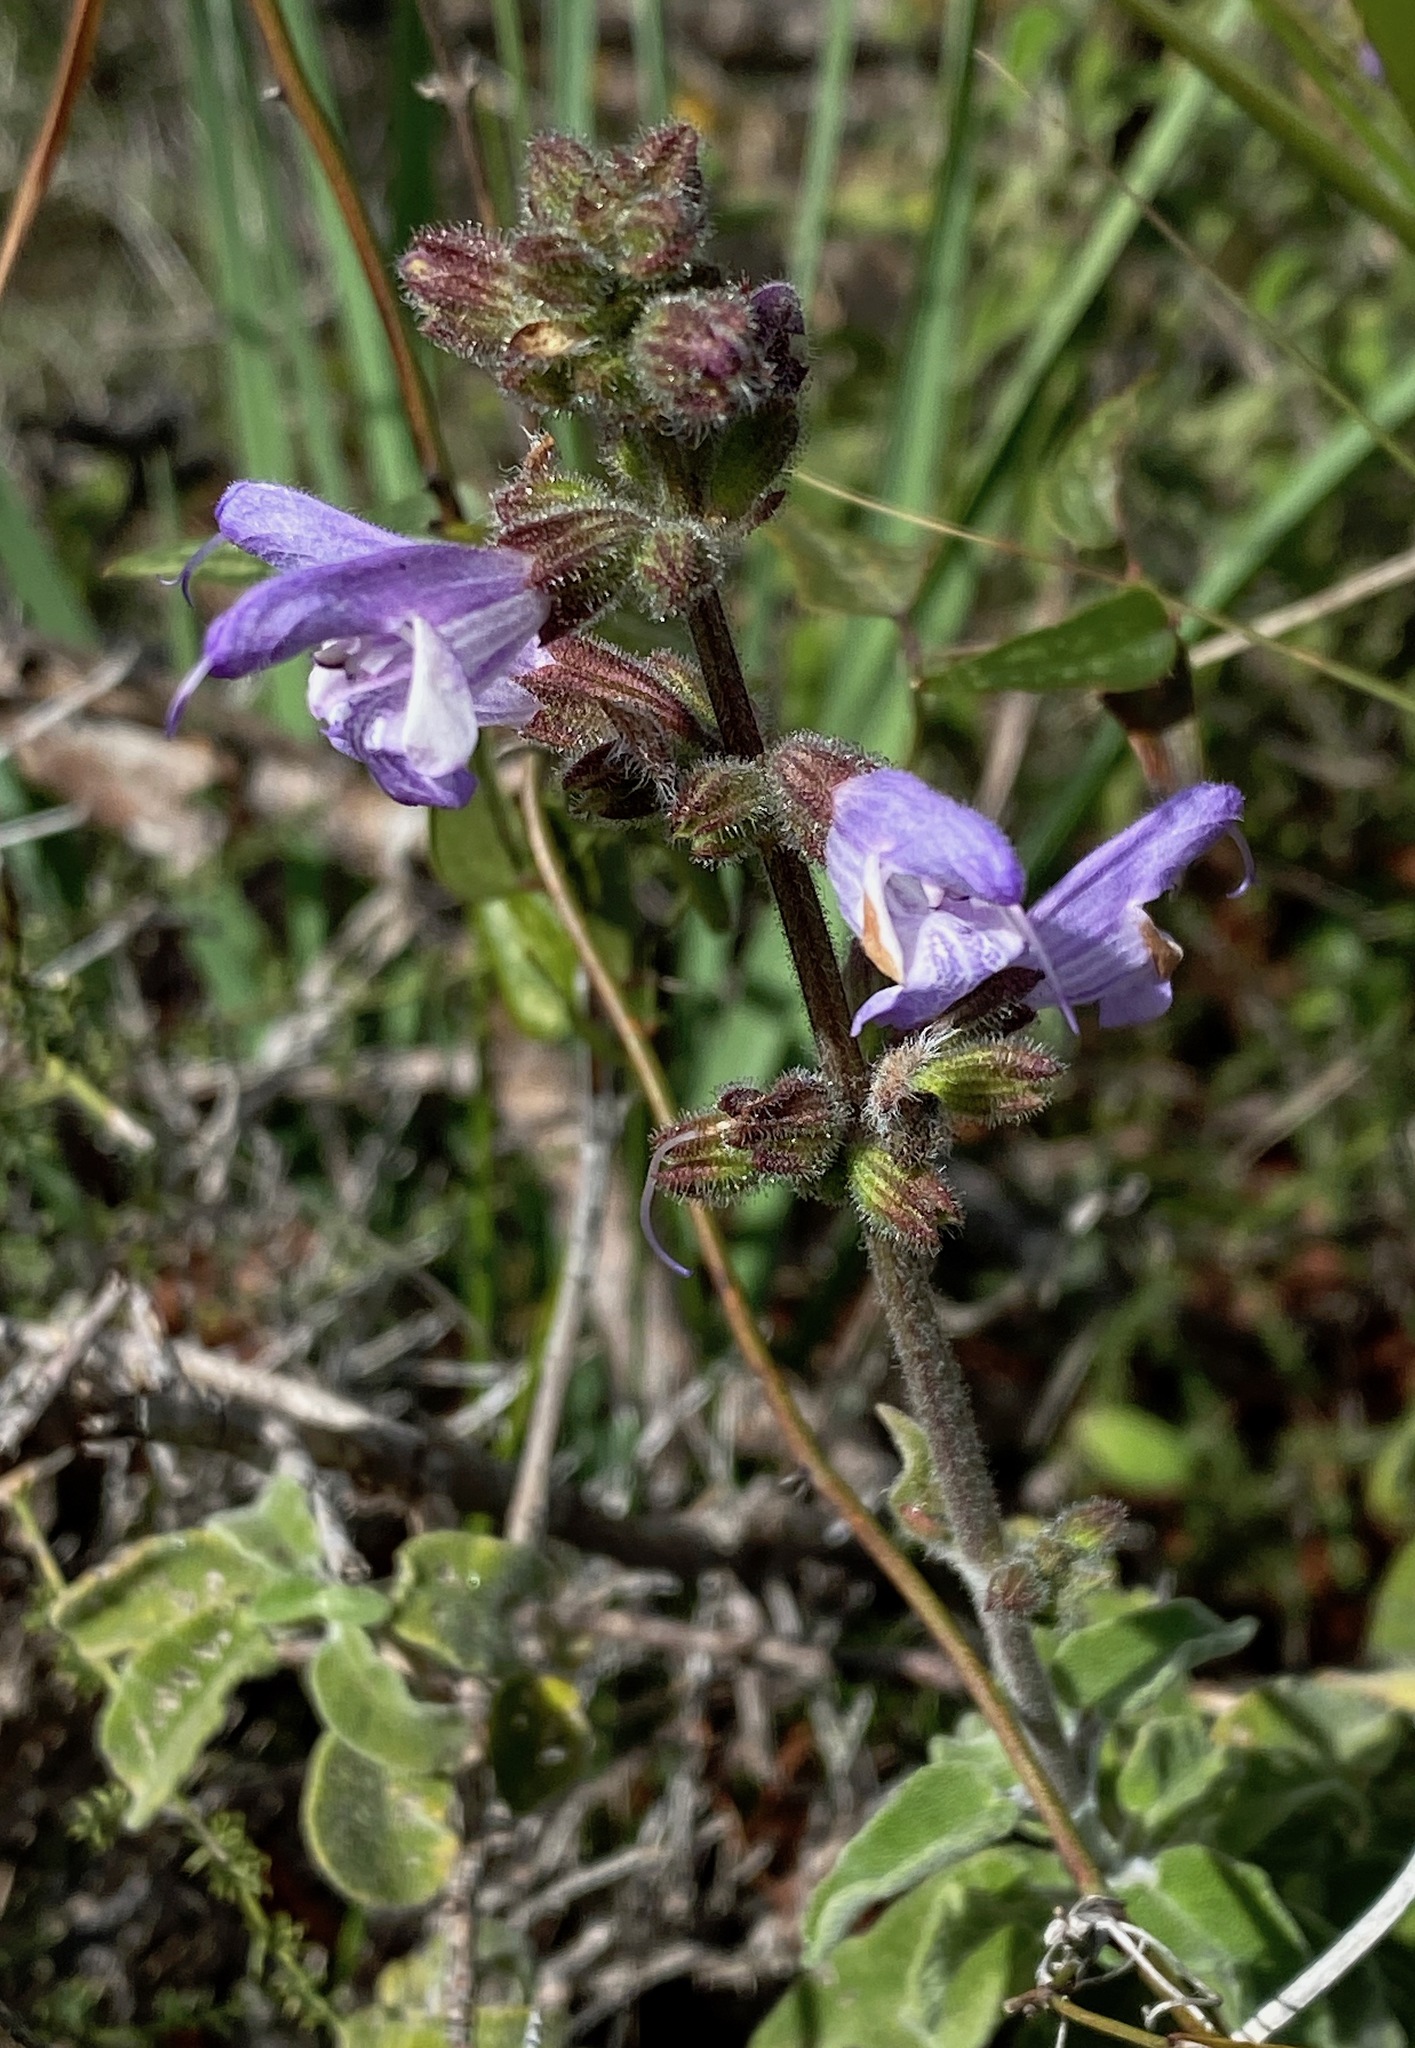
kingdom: Plantae
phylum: Tracheophyta
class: Magnoliopsida
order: Lamiales
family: Lamiaceae
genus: Salvia
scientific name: Salvia fruticosa
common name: Greek sage
